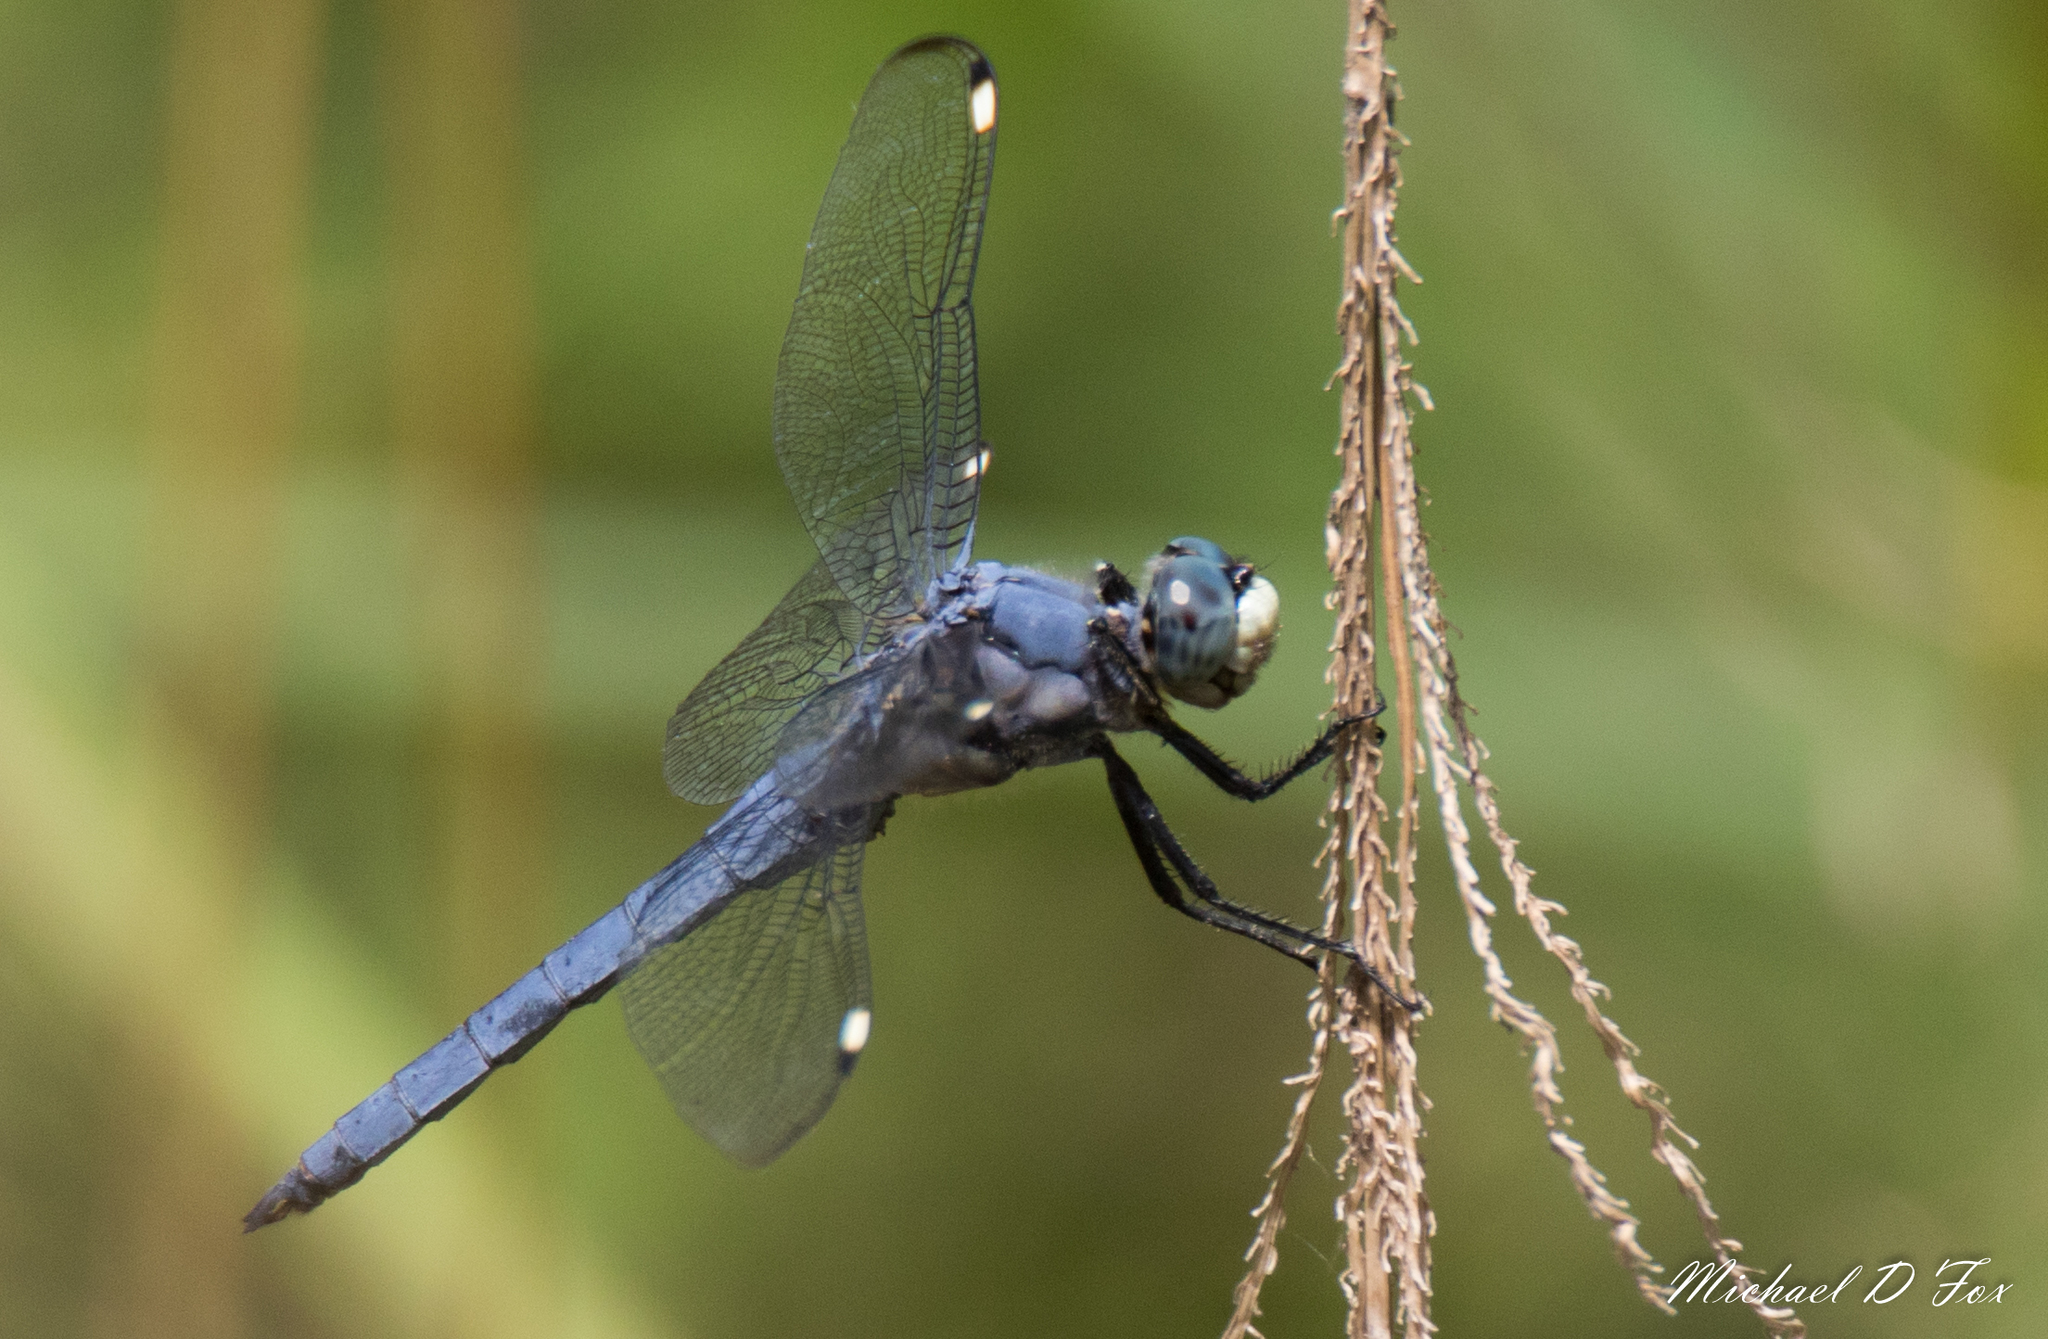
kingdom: Animalia
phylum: Arthropoda
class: Insecta
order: Odonata
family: Libellulidae
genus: Libellula
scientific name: Libellula comanche
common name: Comanche skimmer
